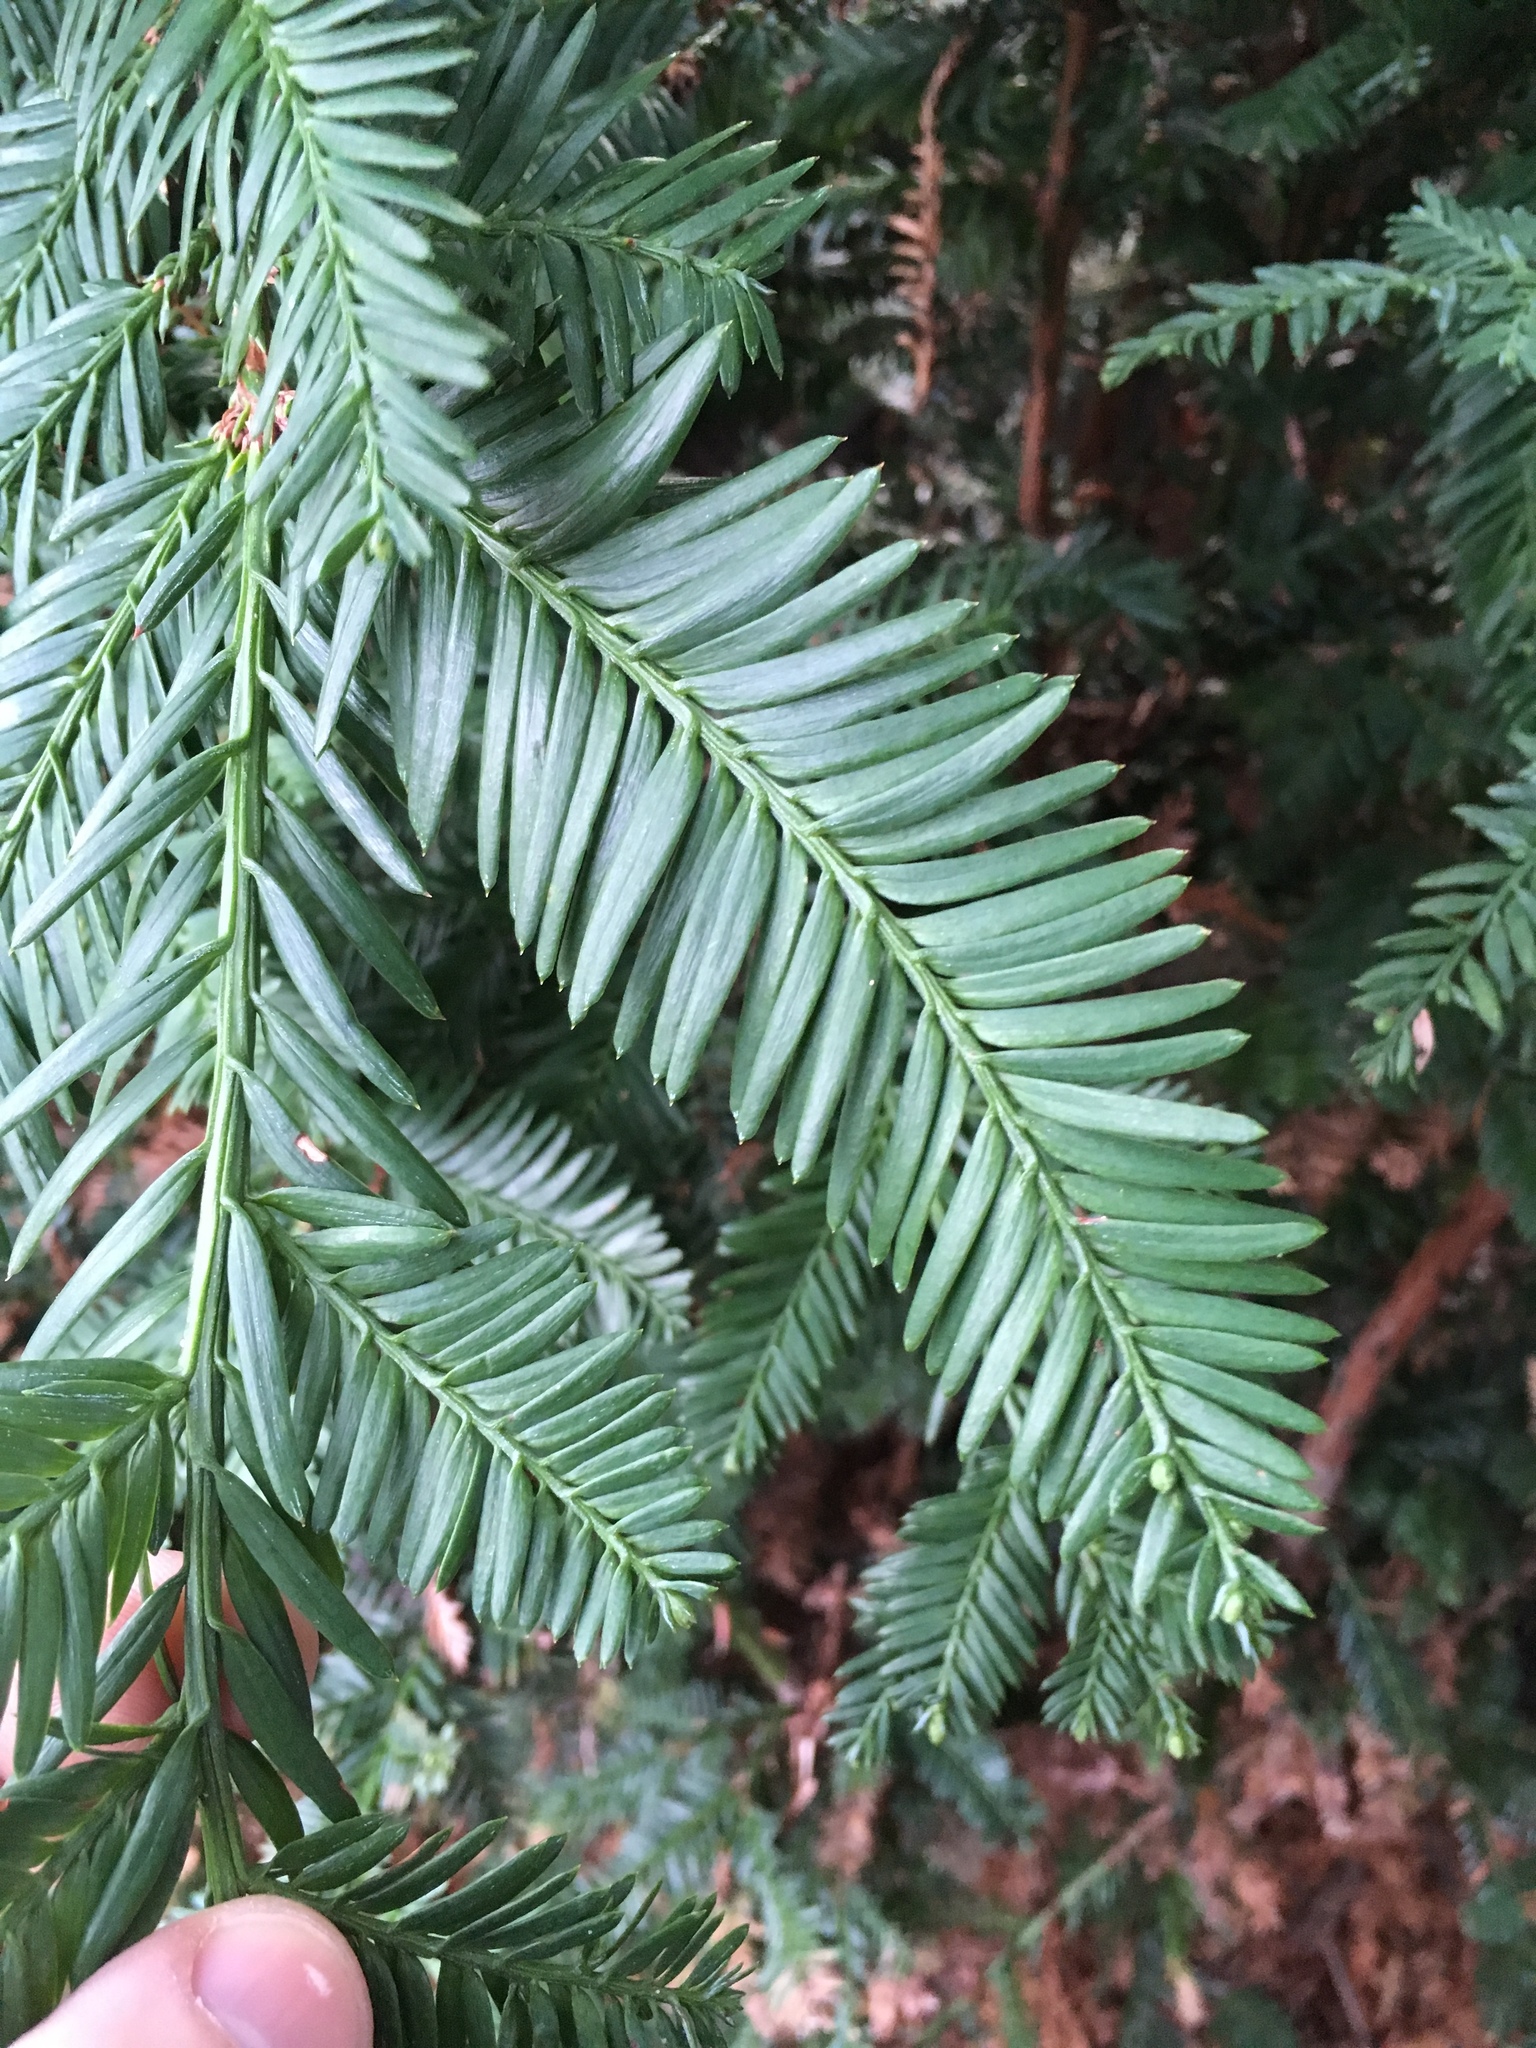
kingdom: Plantae
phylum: Tracheophyta
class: Pinopsida
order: Pinales
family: Cupressaceae
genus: Sequoia
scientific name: Sequoia sempervirens
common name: Coast redwood
